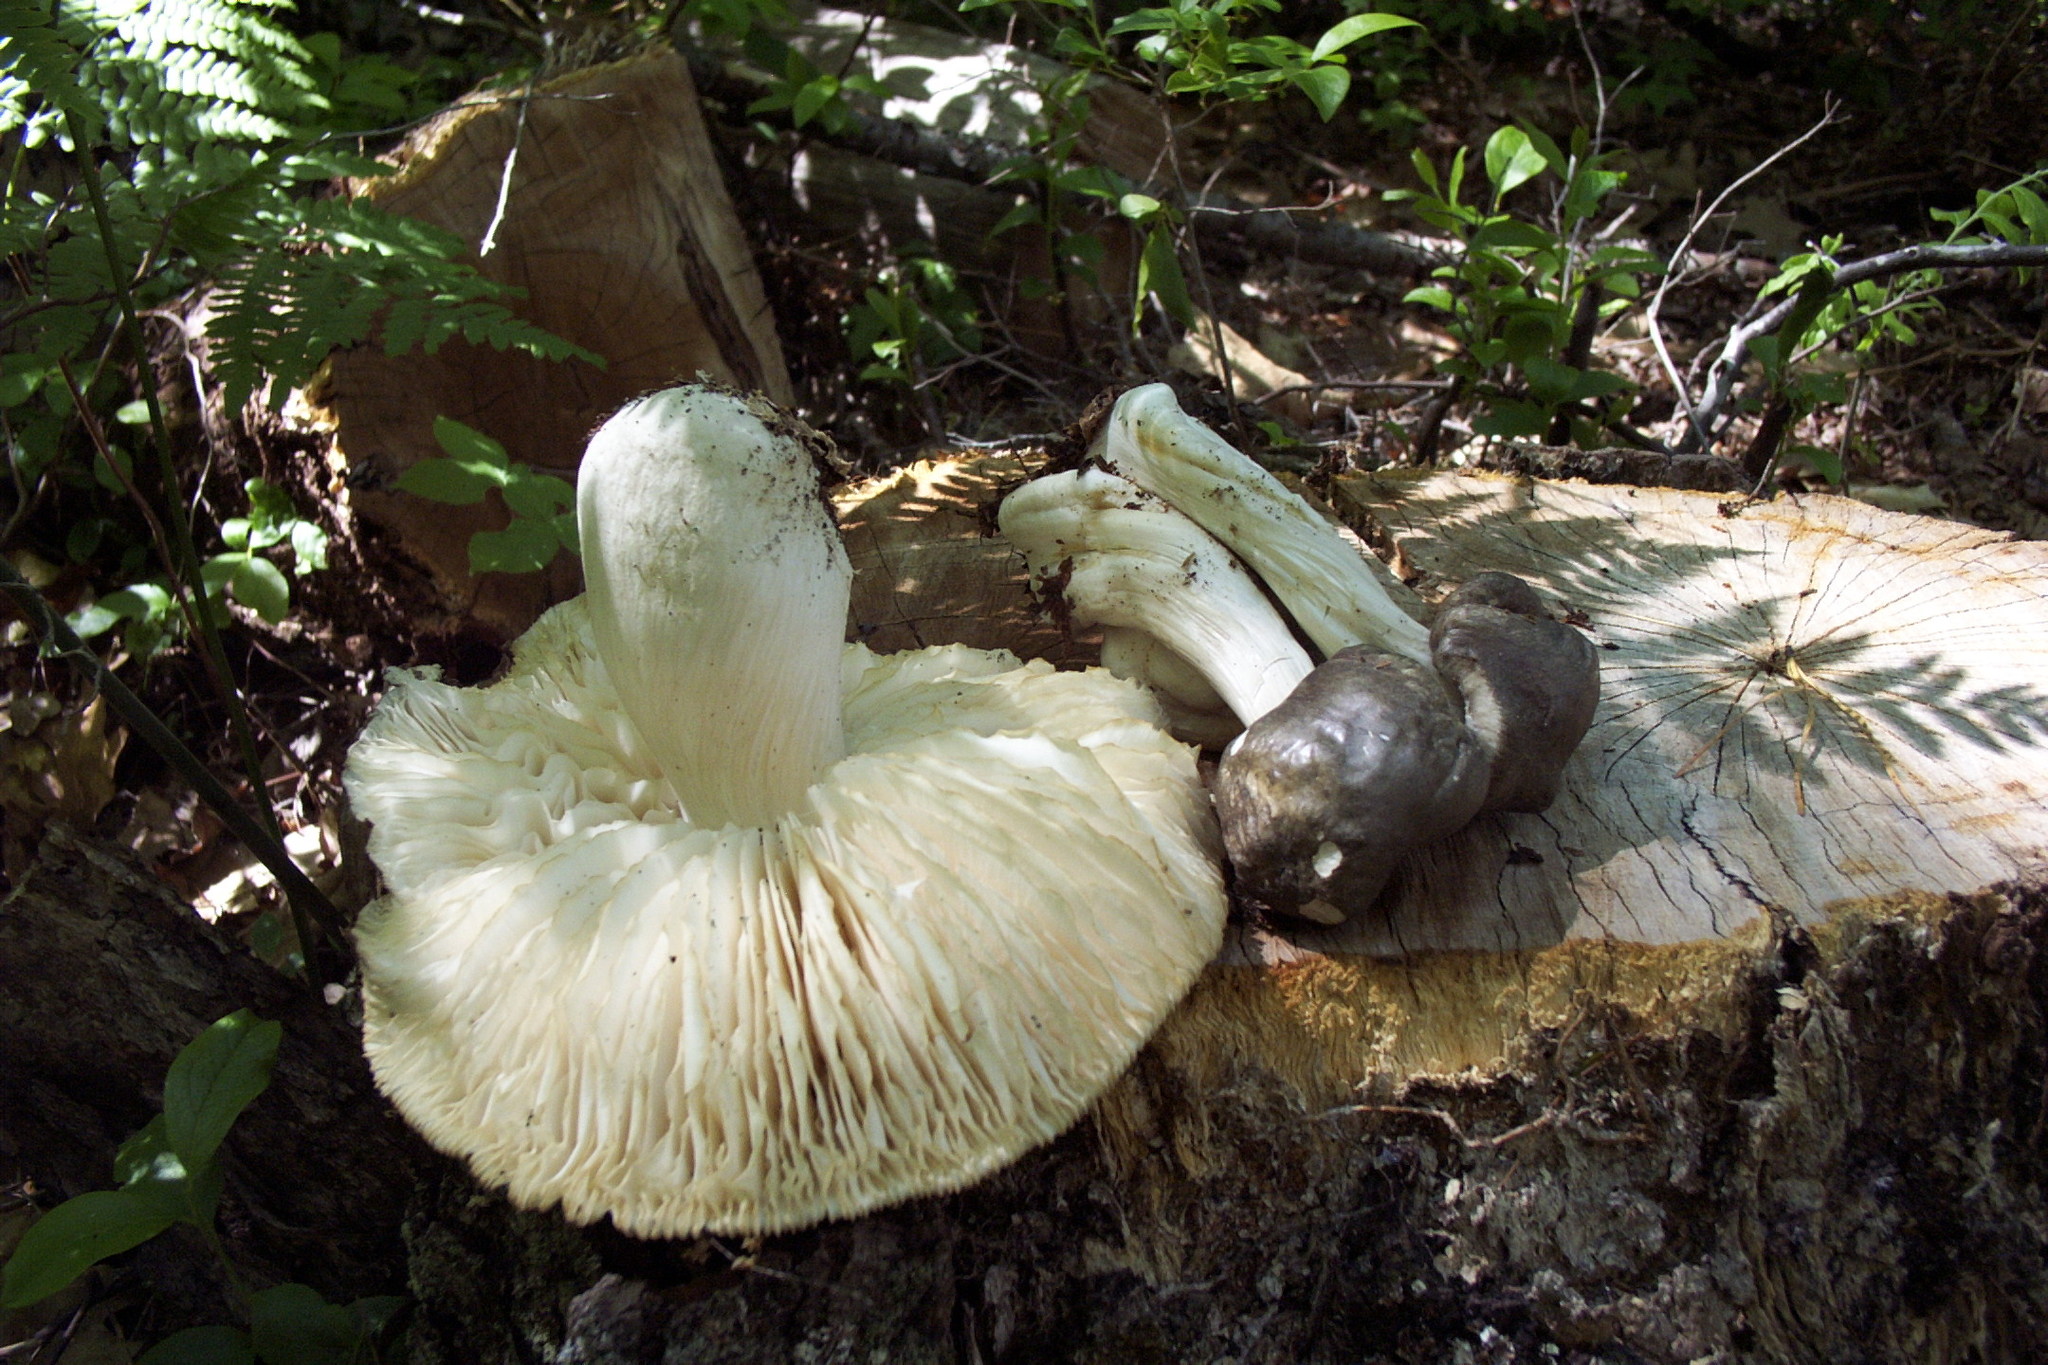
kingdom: Fungi
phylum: Basidiomycota
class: Agaricomycetes
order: Agaricales
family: Tricholomataceae
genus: Megacollybia
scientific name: Megacollybia rodmanii
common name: Eastern american platterful mushroom
